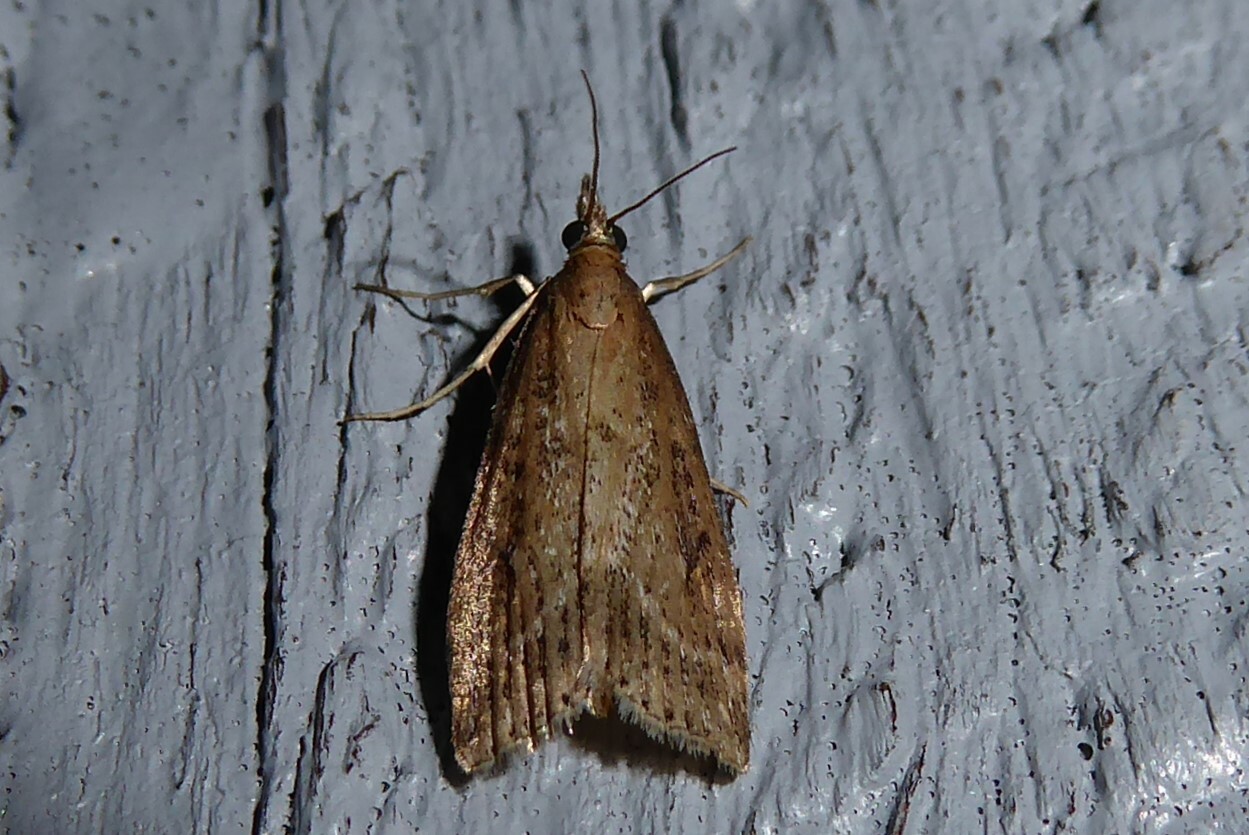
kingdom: Animalia
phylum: Arthropoda
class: Insecta
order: Lepidoptera
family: Crambidae
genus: Eudonia
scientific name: Eudonia octophora
